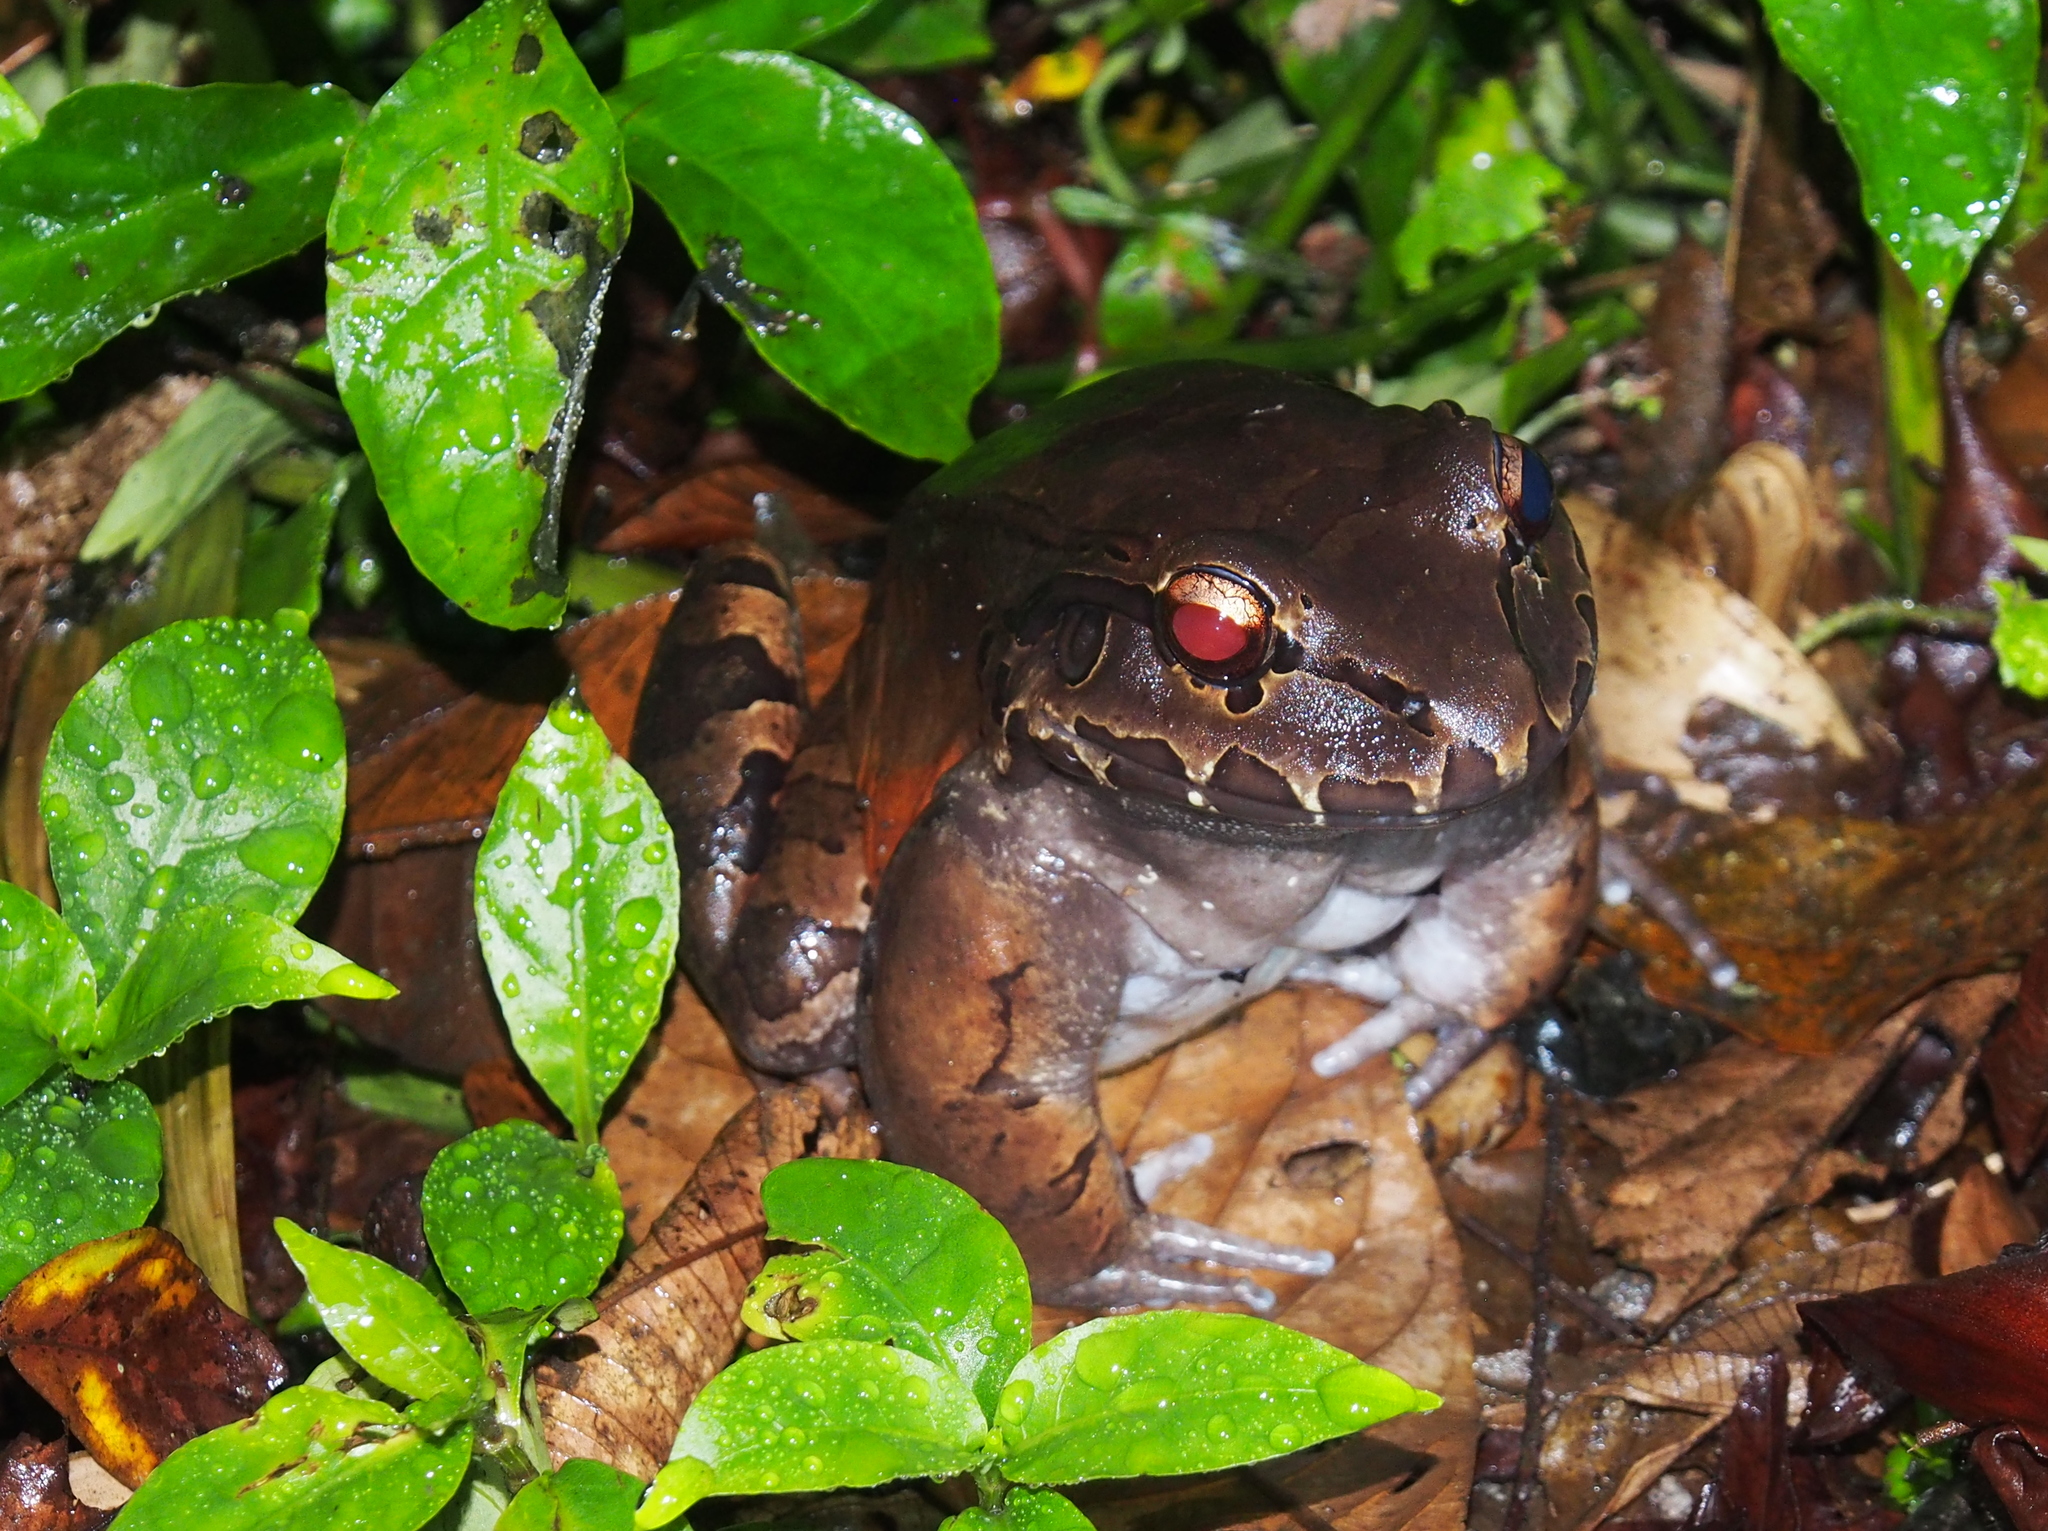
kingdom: Animalia
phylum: Chordata
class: Amphibia
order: Anura
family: Leptodactylidae
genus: Leptodactylus
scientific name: Leptodactylus savagei
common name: Savage's thin-toed frog
